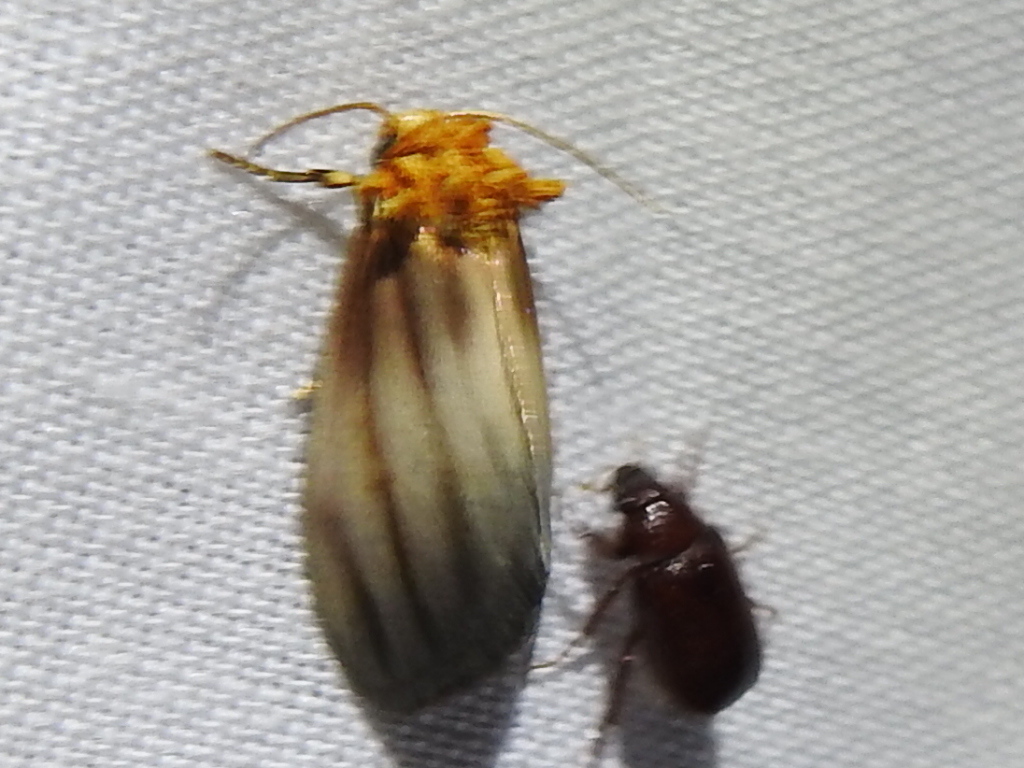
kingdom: Animalia
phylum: Arthropoda
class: Insecta
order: Lepidoptera
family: Noctuidae
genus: Antaplaga
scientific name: Antaplaga plesioglauca
